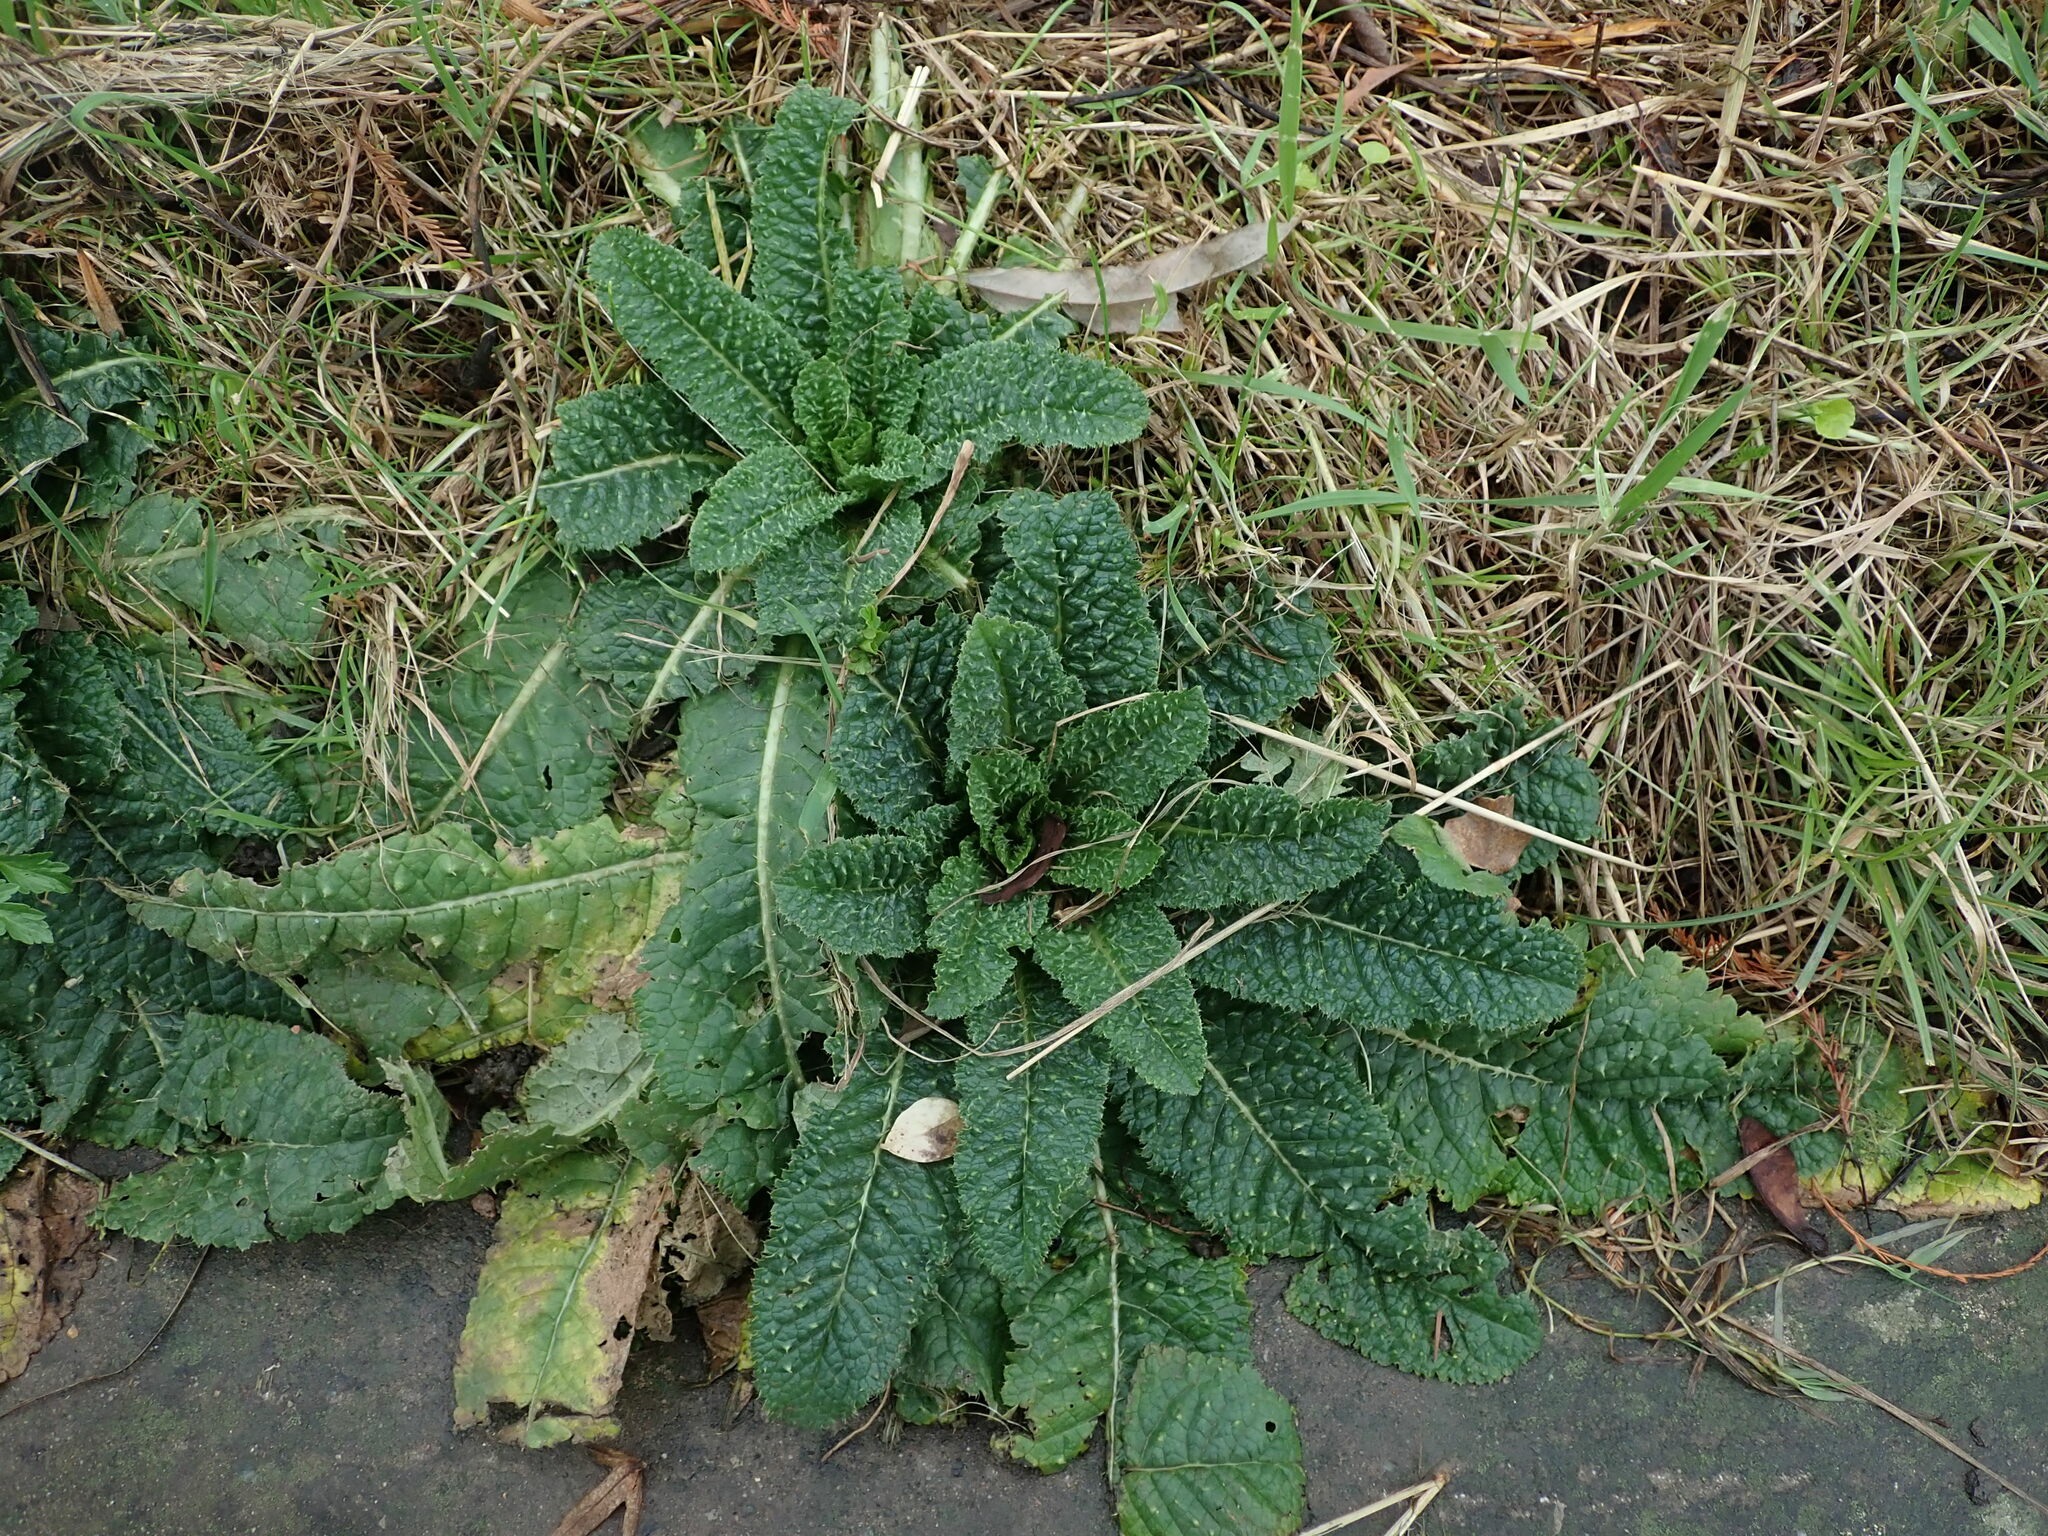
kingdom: Plantae
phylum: Tracheophyta
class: Magnoliopsida
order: Dipsacales
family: Caprifoliaceae
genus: Dipsacus
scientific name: Dipsacus fullonum
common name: Teasel
